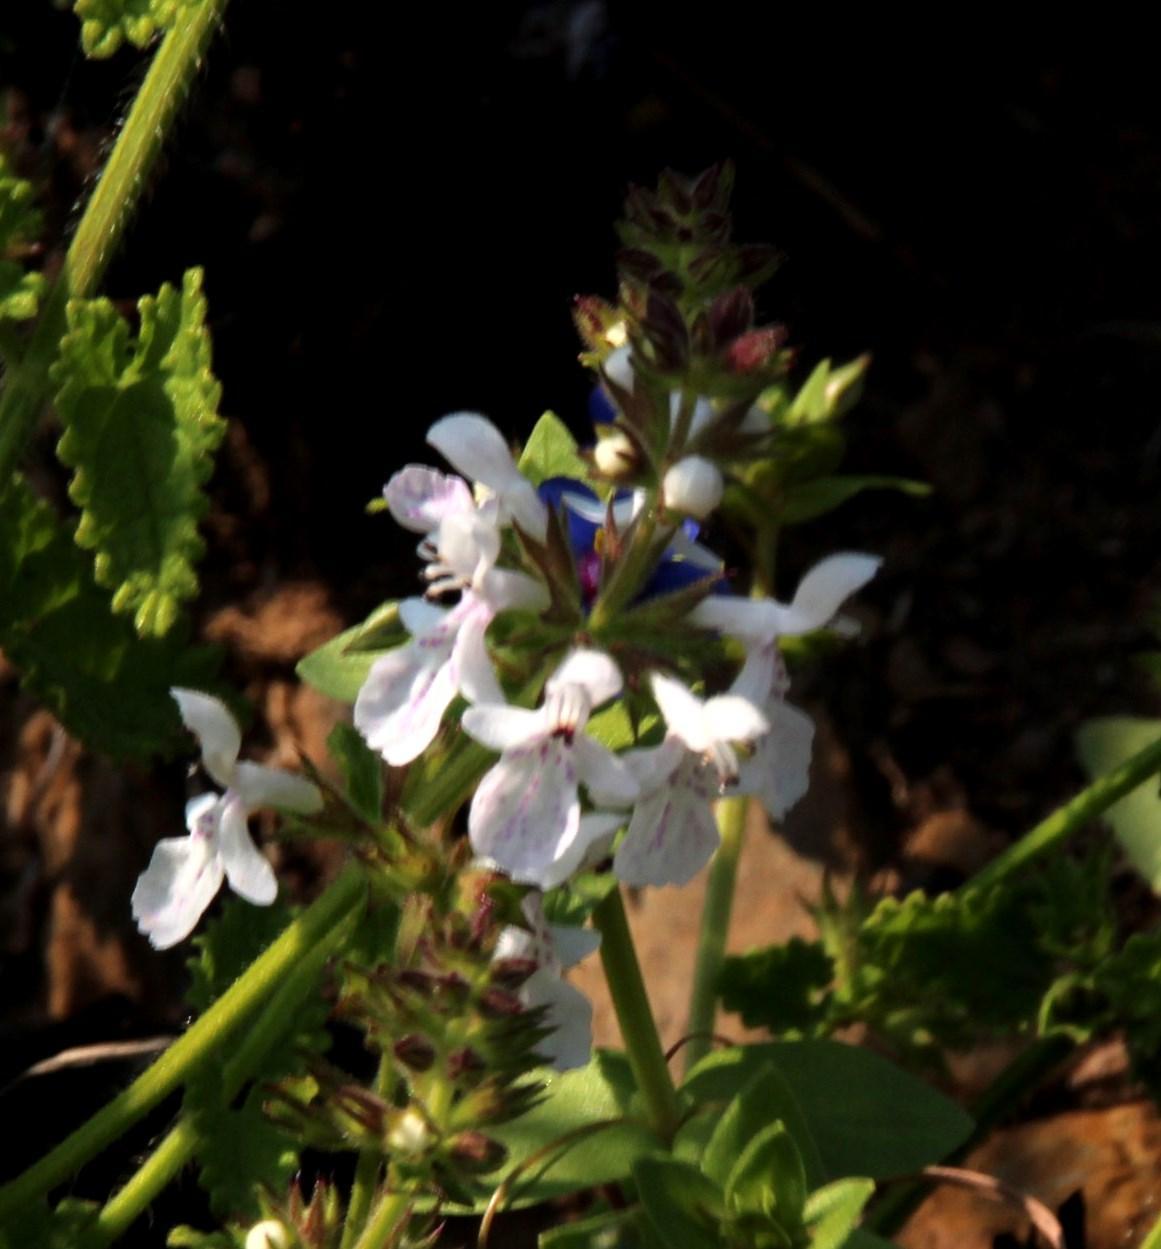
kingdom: Plantae
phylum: Tracheophyta
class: Magnoliopsida
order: Lamiales
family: Lamiaceae
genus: Stachys
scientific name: Stachys aethiopica
